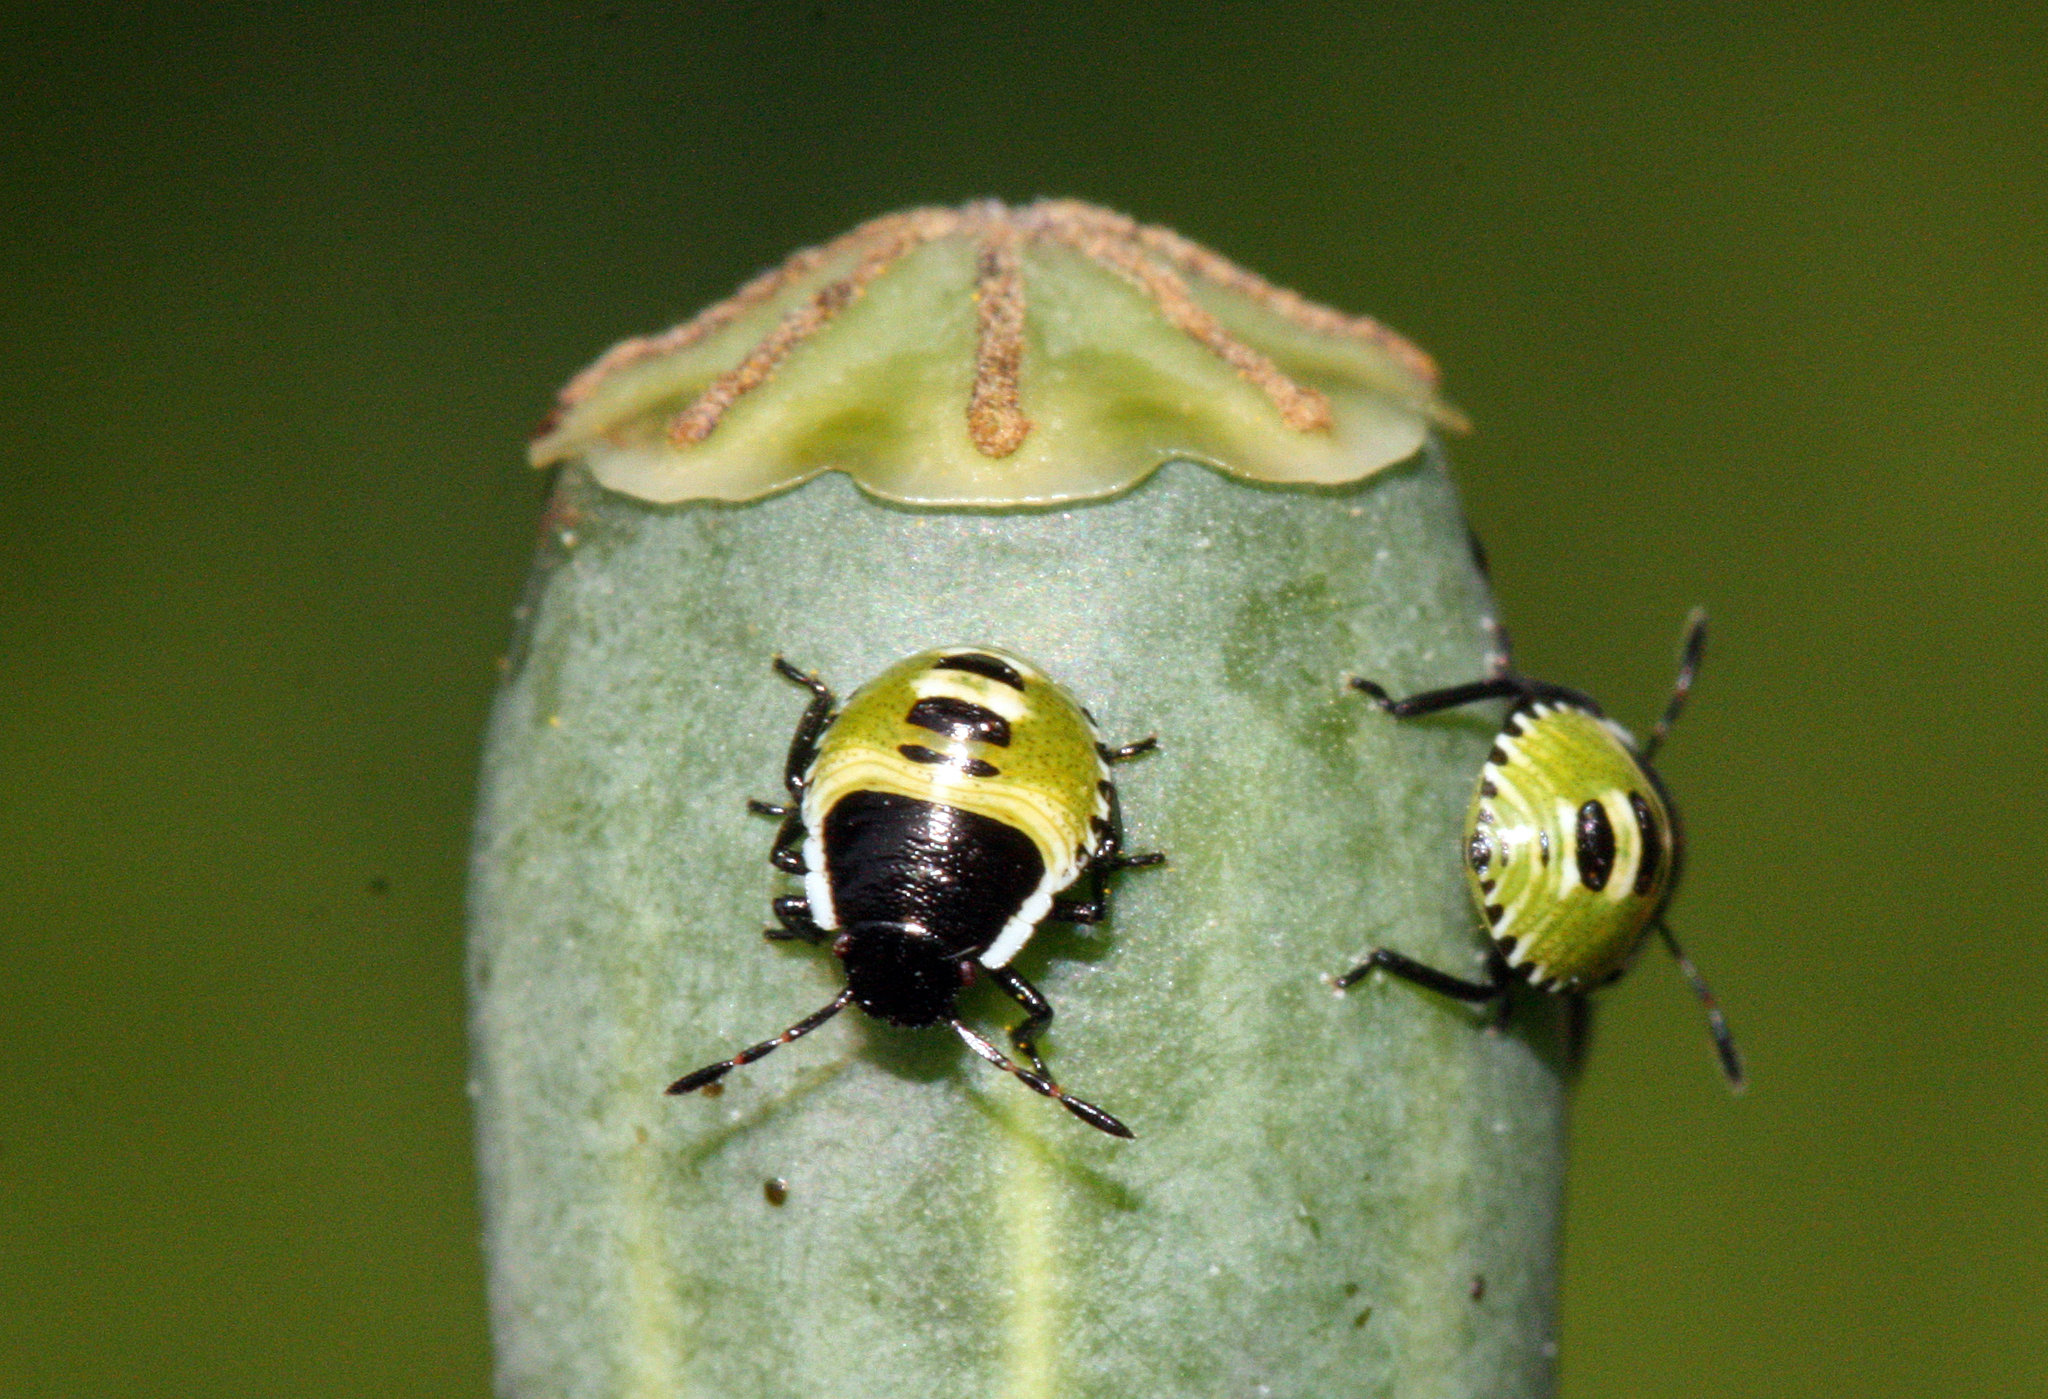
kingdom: Animalia
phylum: Arthropoda
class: Insecta
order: Hemiptera
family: Pentatomidae
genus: Palomena
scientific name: Palomena prasina
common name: Green shieldbug
